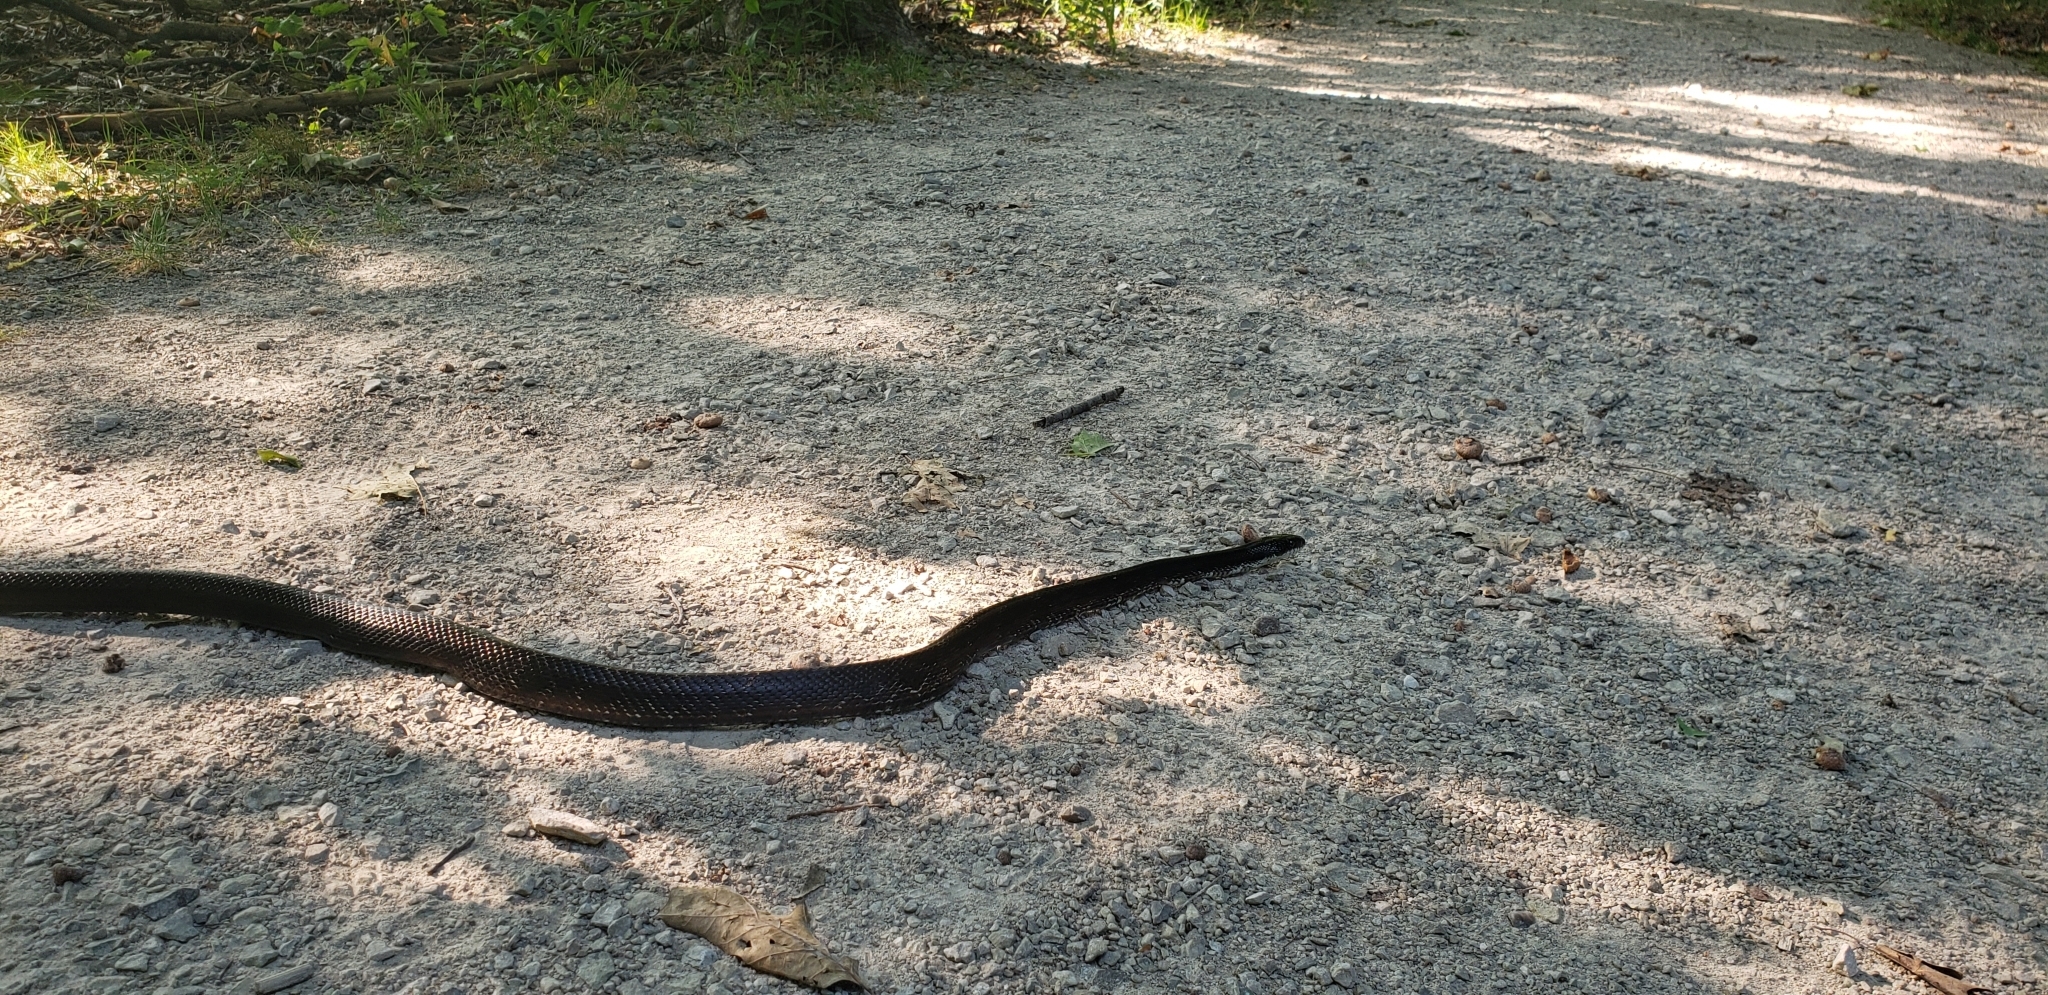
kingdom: Animalia
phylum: Chordata
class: Squamata
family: Colubridae
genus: Pantherophis
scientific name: Pantherophis spiloides
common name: Gray rat snake
